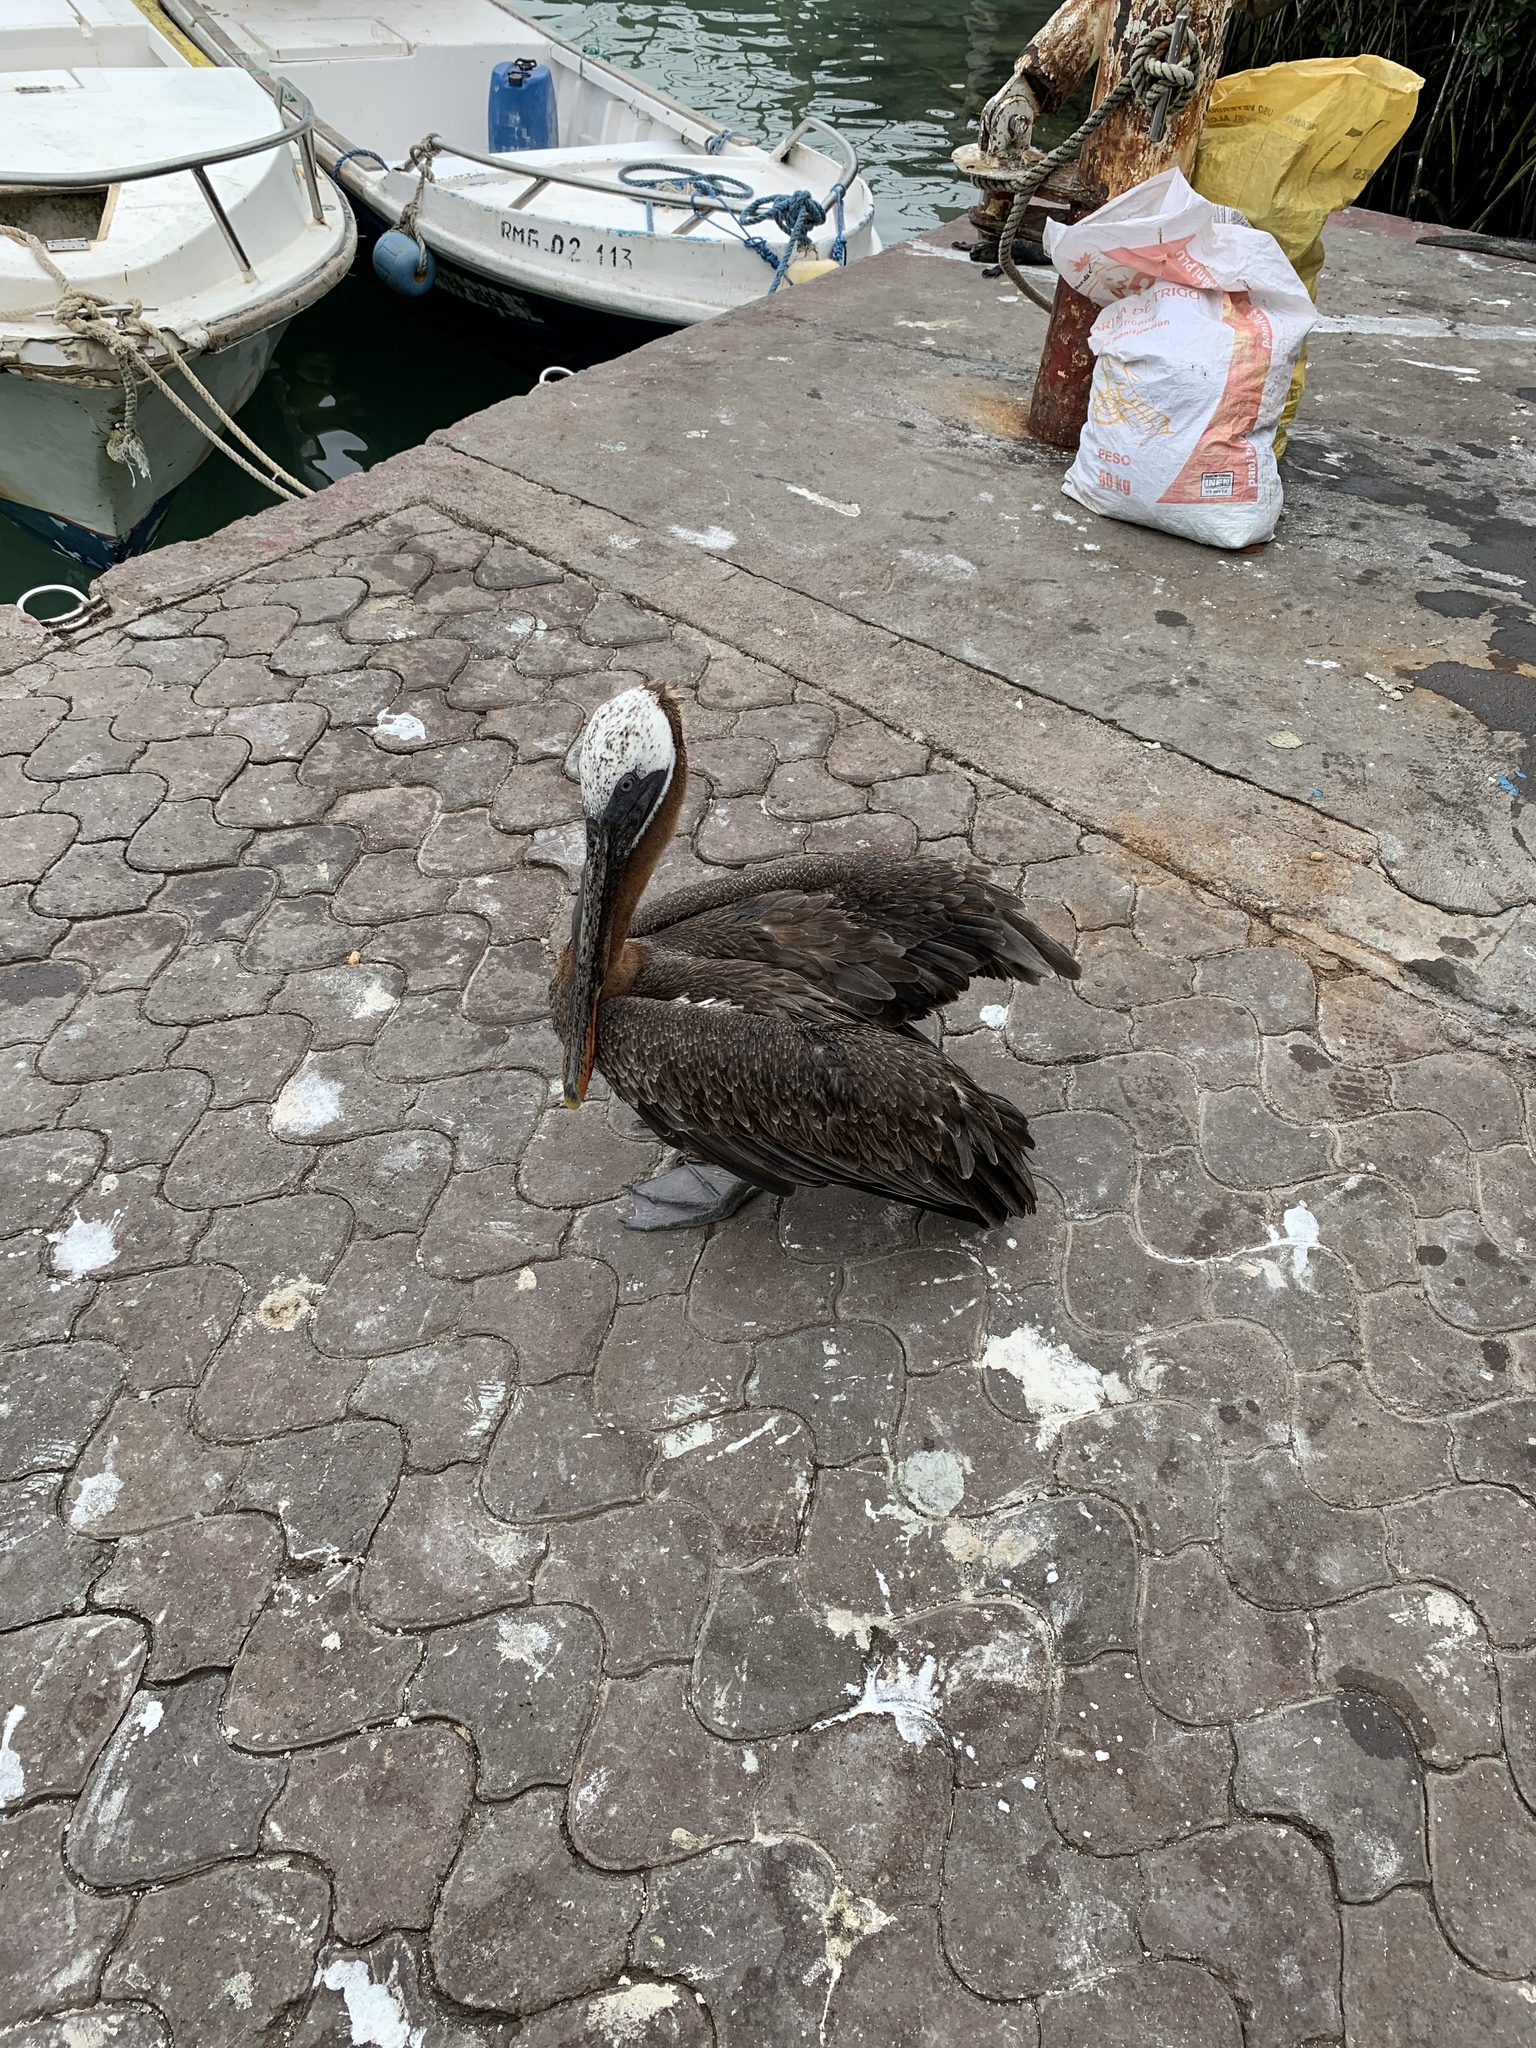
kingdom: Animalia
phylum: Chordata
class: Aves
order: Pelecaniformes
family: Pelecanidae
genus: Pelecanus
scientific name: Pelecanus occidentalis
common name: Brown pelican
